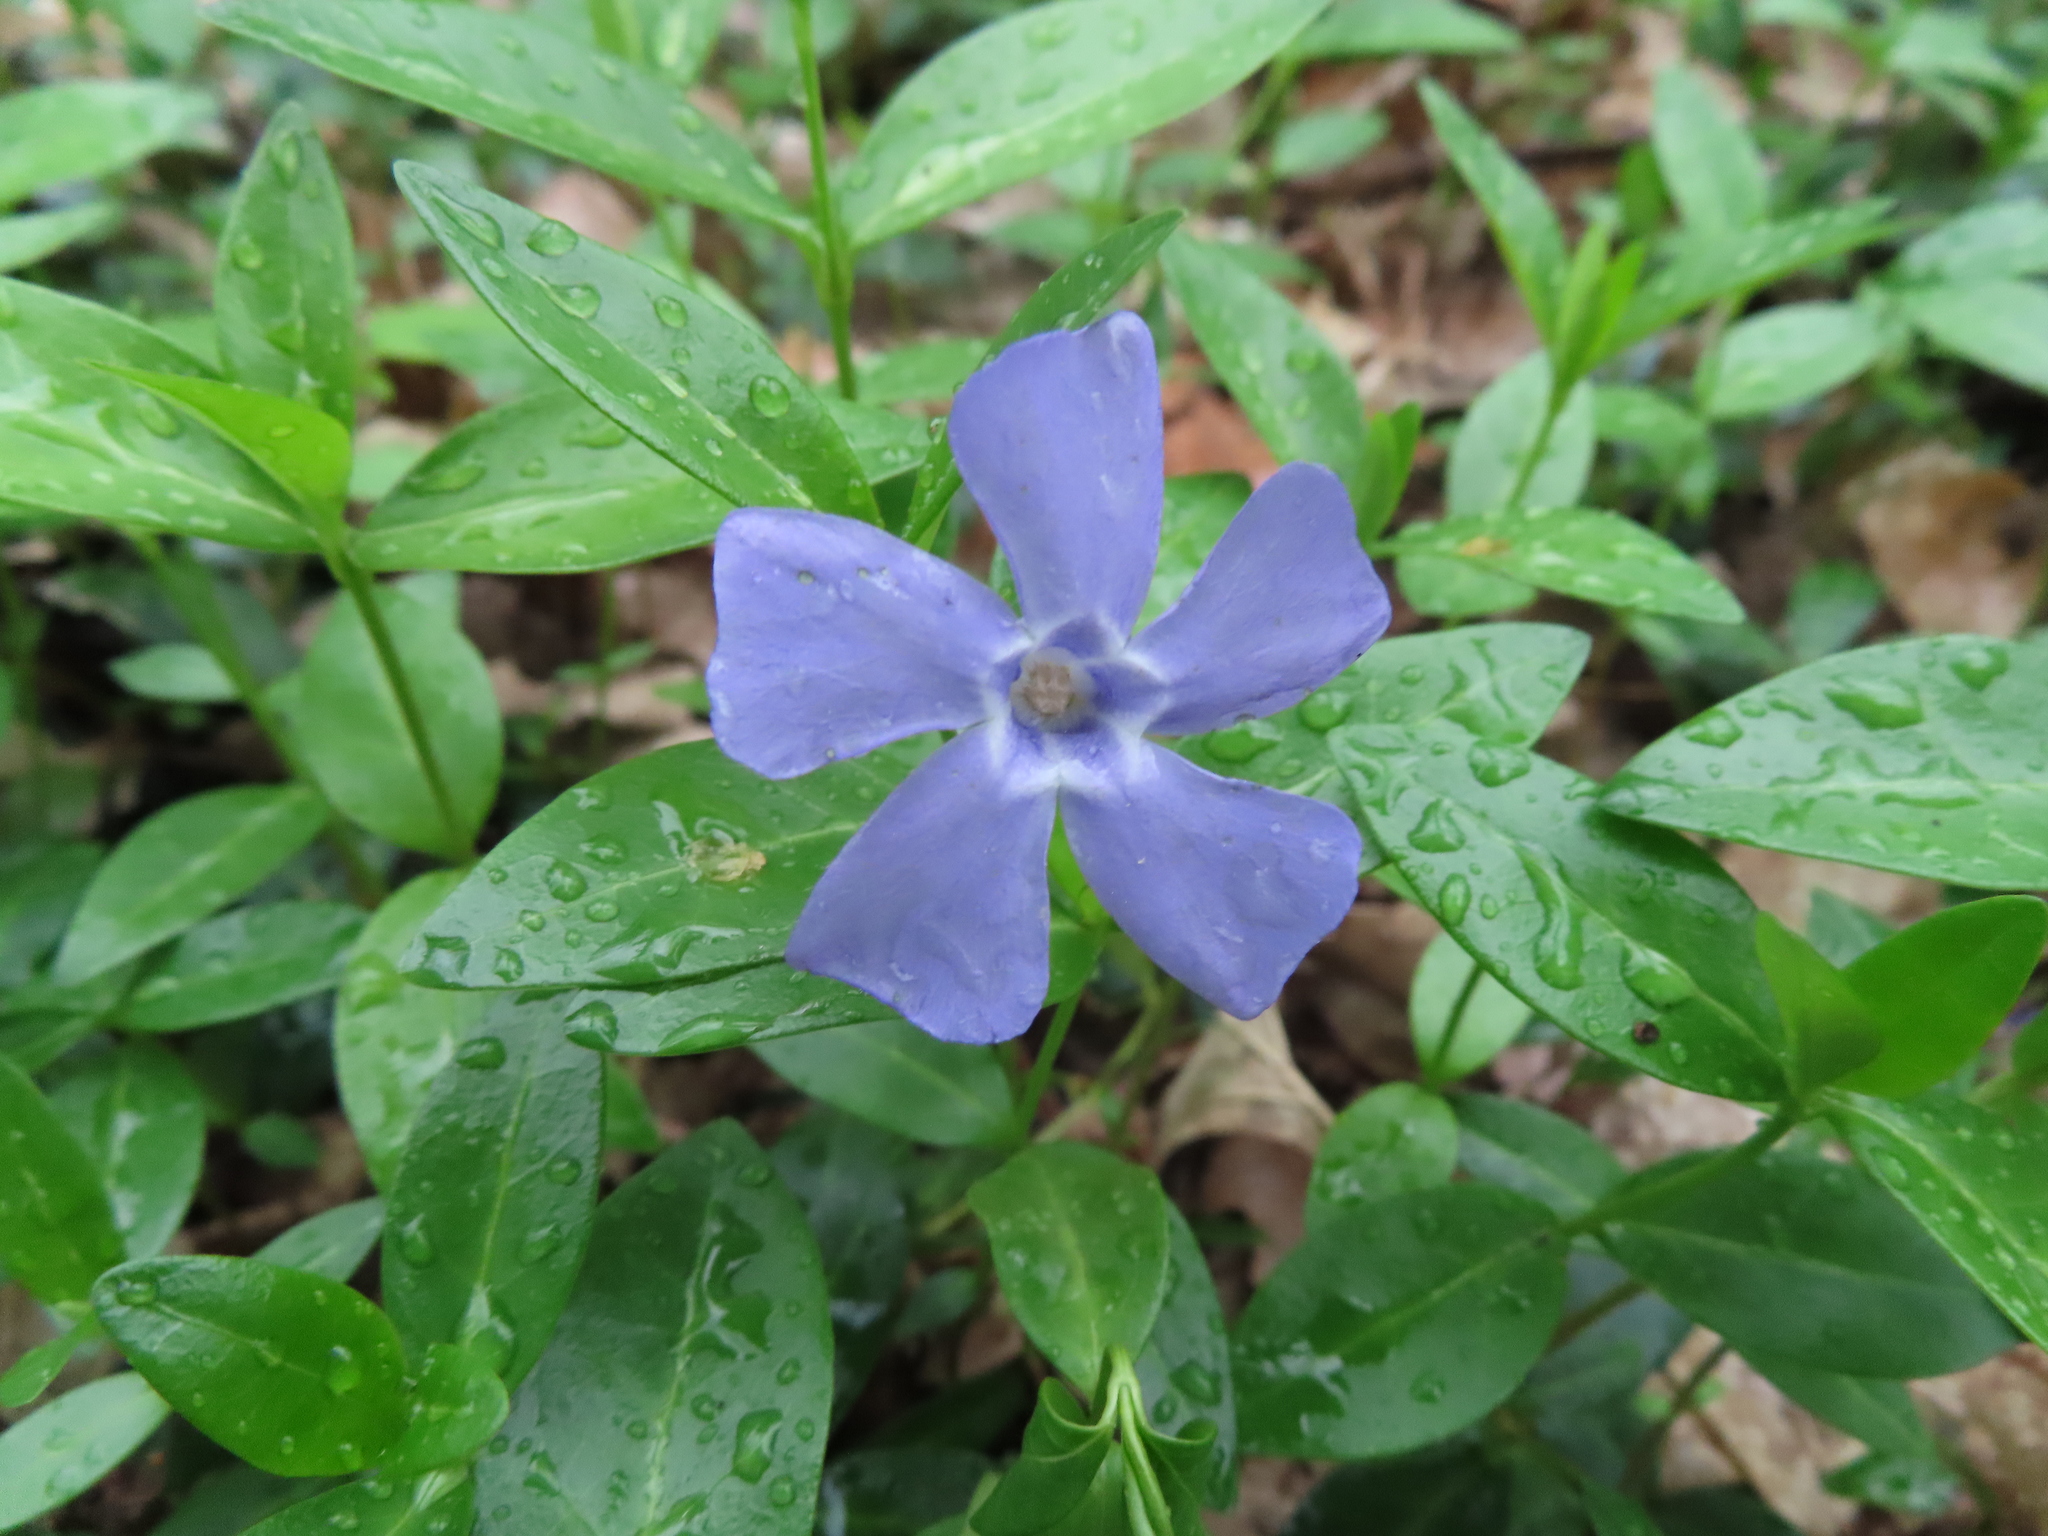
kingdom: Plantae
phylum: Tracheophyta
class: Magnoliopsida
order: Gentianales
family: Apocynaceae
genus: Vinca
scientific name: Vinca minor
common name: Lesser periwinkle
